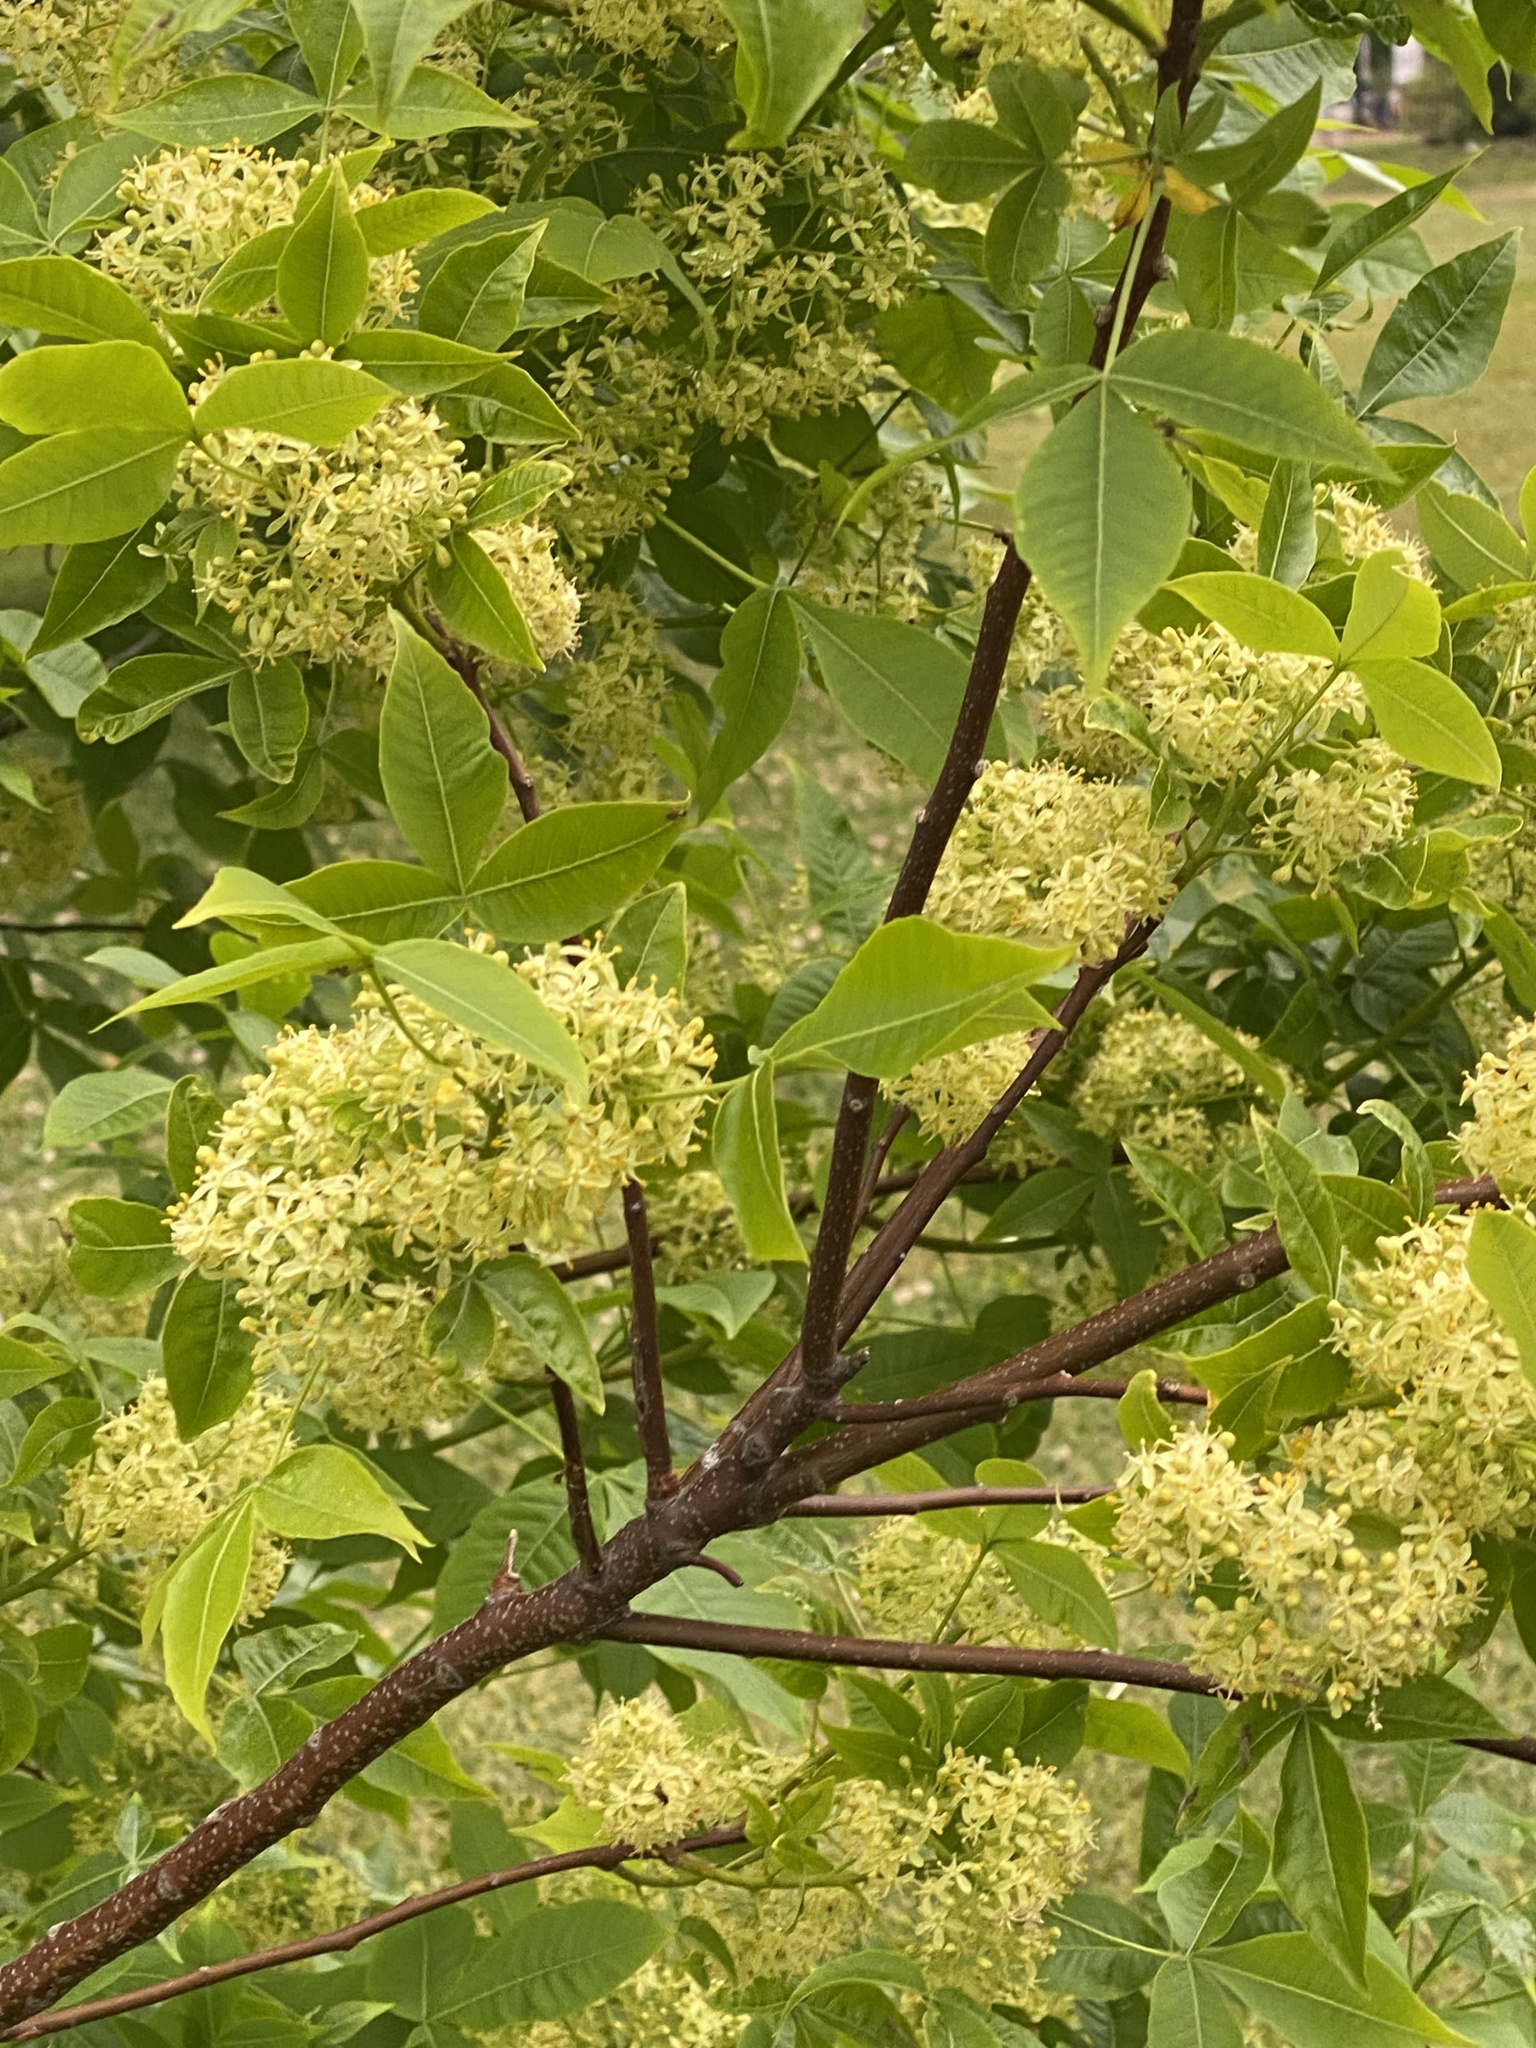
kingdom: Plantae
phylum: Tracheophyta
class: Magnoliopsida
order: Sapindales
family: Rutaceae
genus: Ptelea
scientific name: Ptelea trifoliata
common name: Common hop-tree
